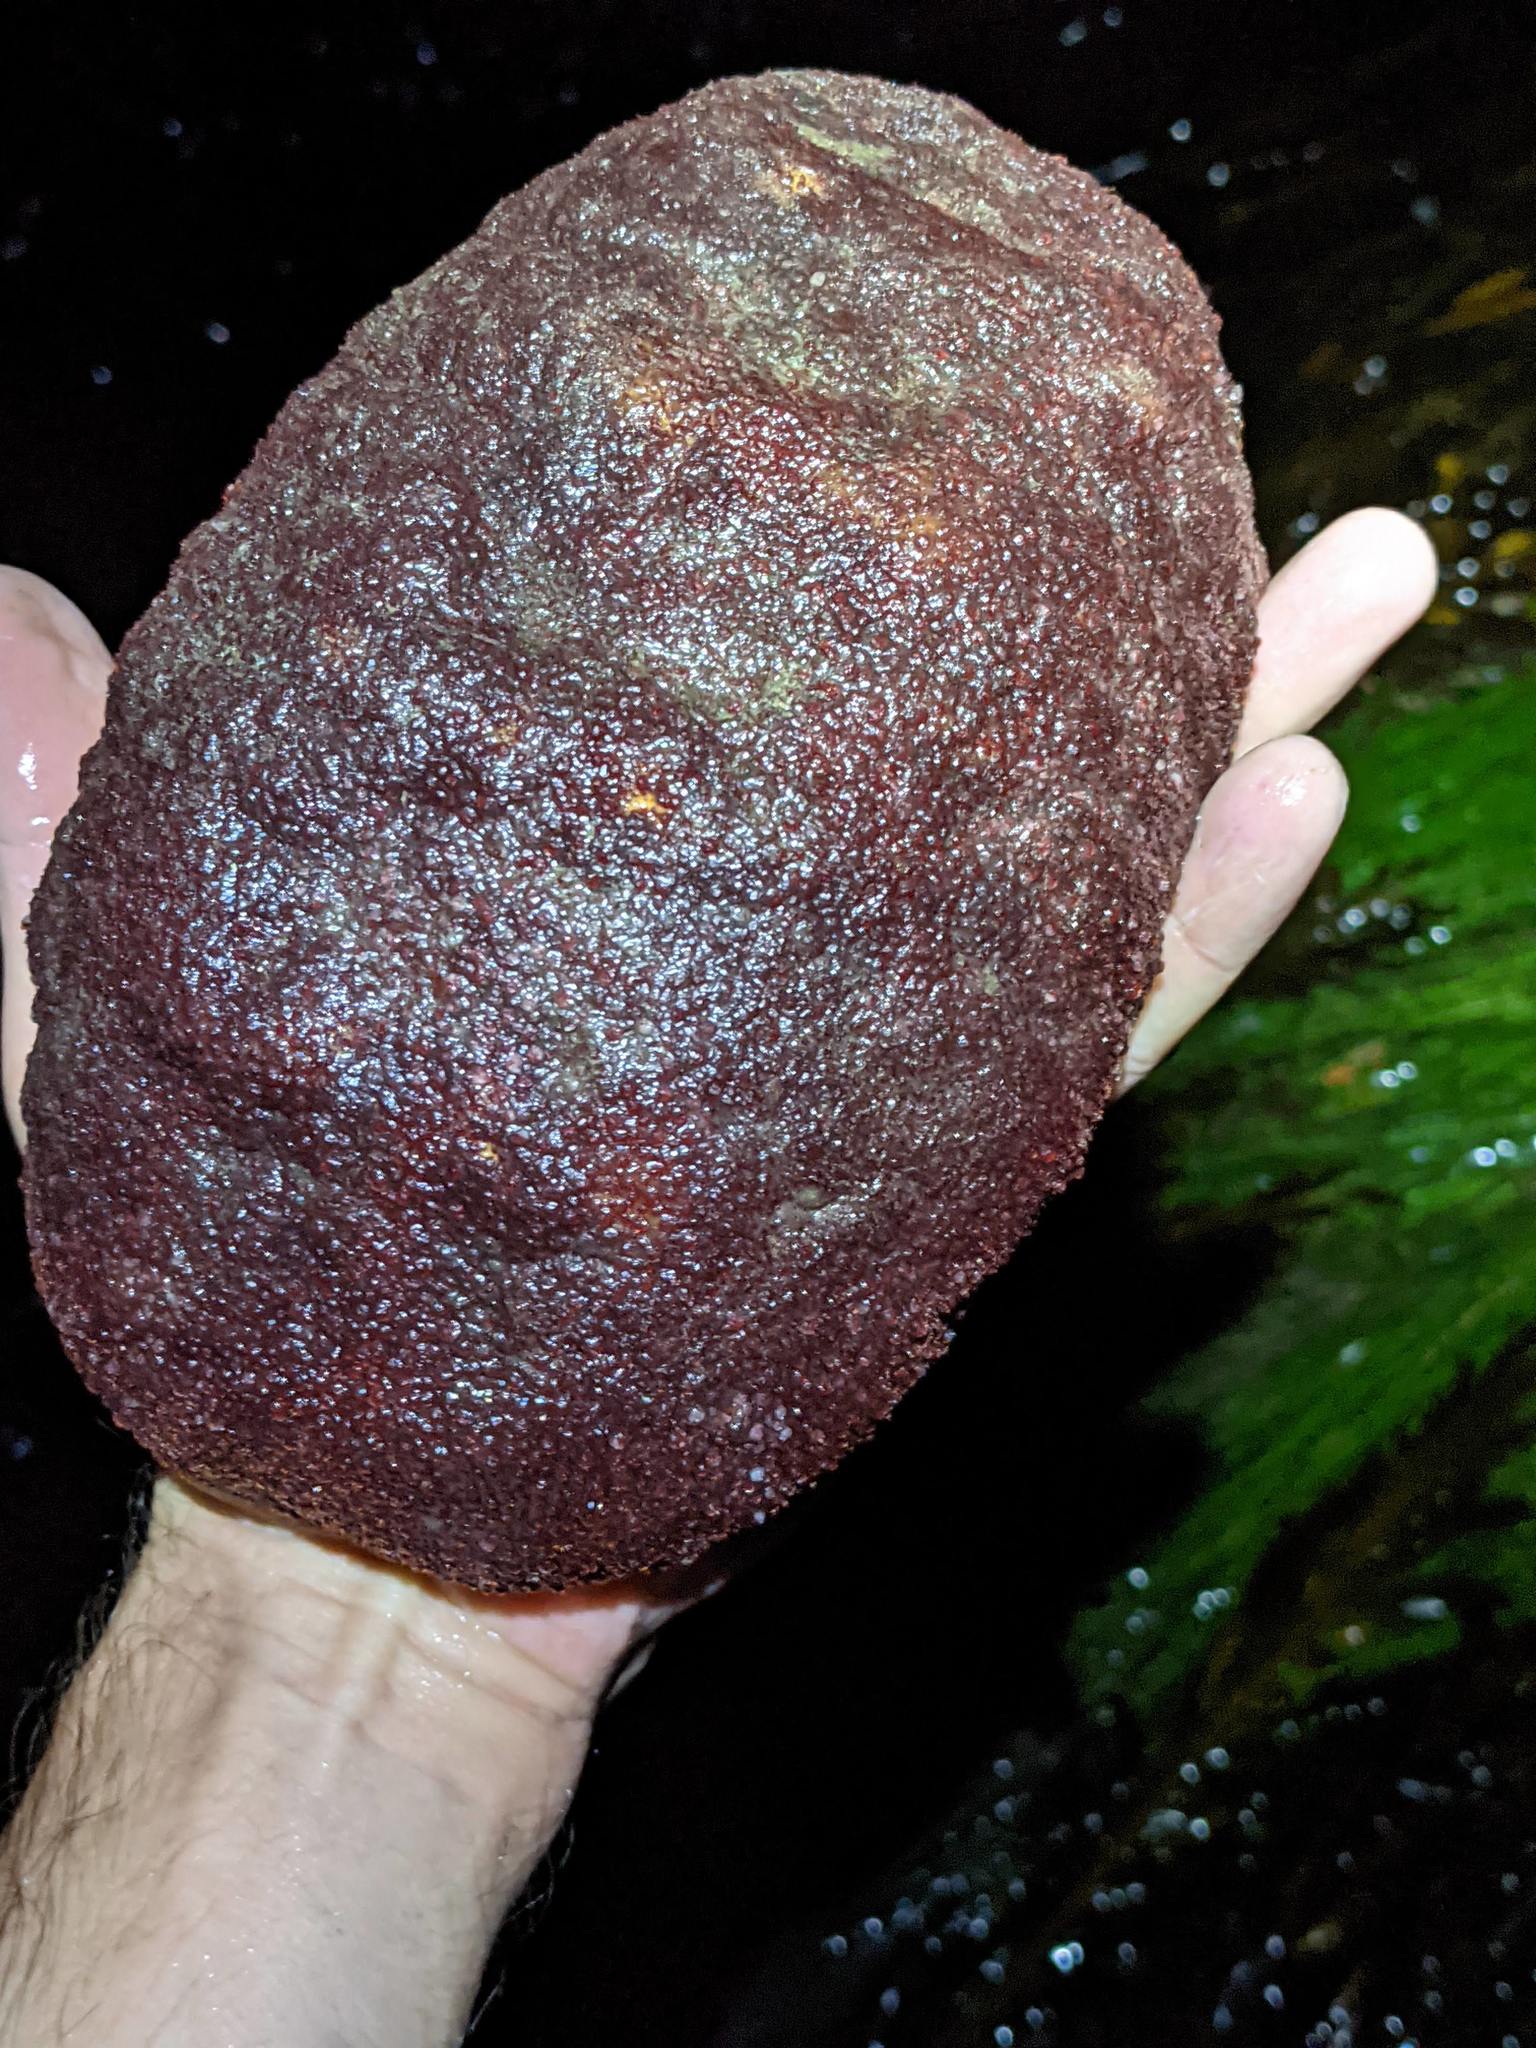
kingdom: Animalia
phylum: Mollusca
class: Polyplacophora
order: Chitonida
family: Acanthochitonidae
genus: Cryptochiton
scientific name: Cryptochiton stelleri
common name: Giant pacific chiton
